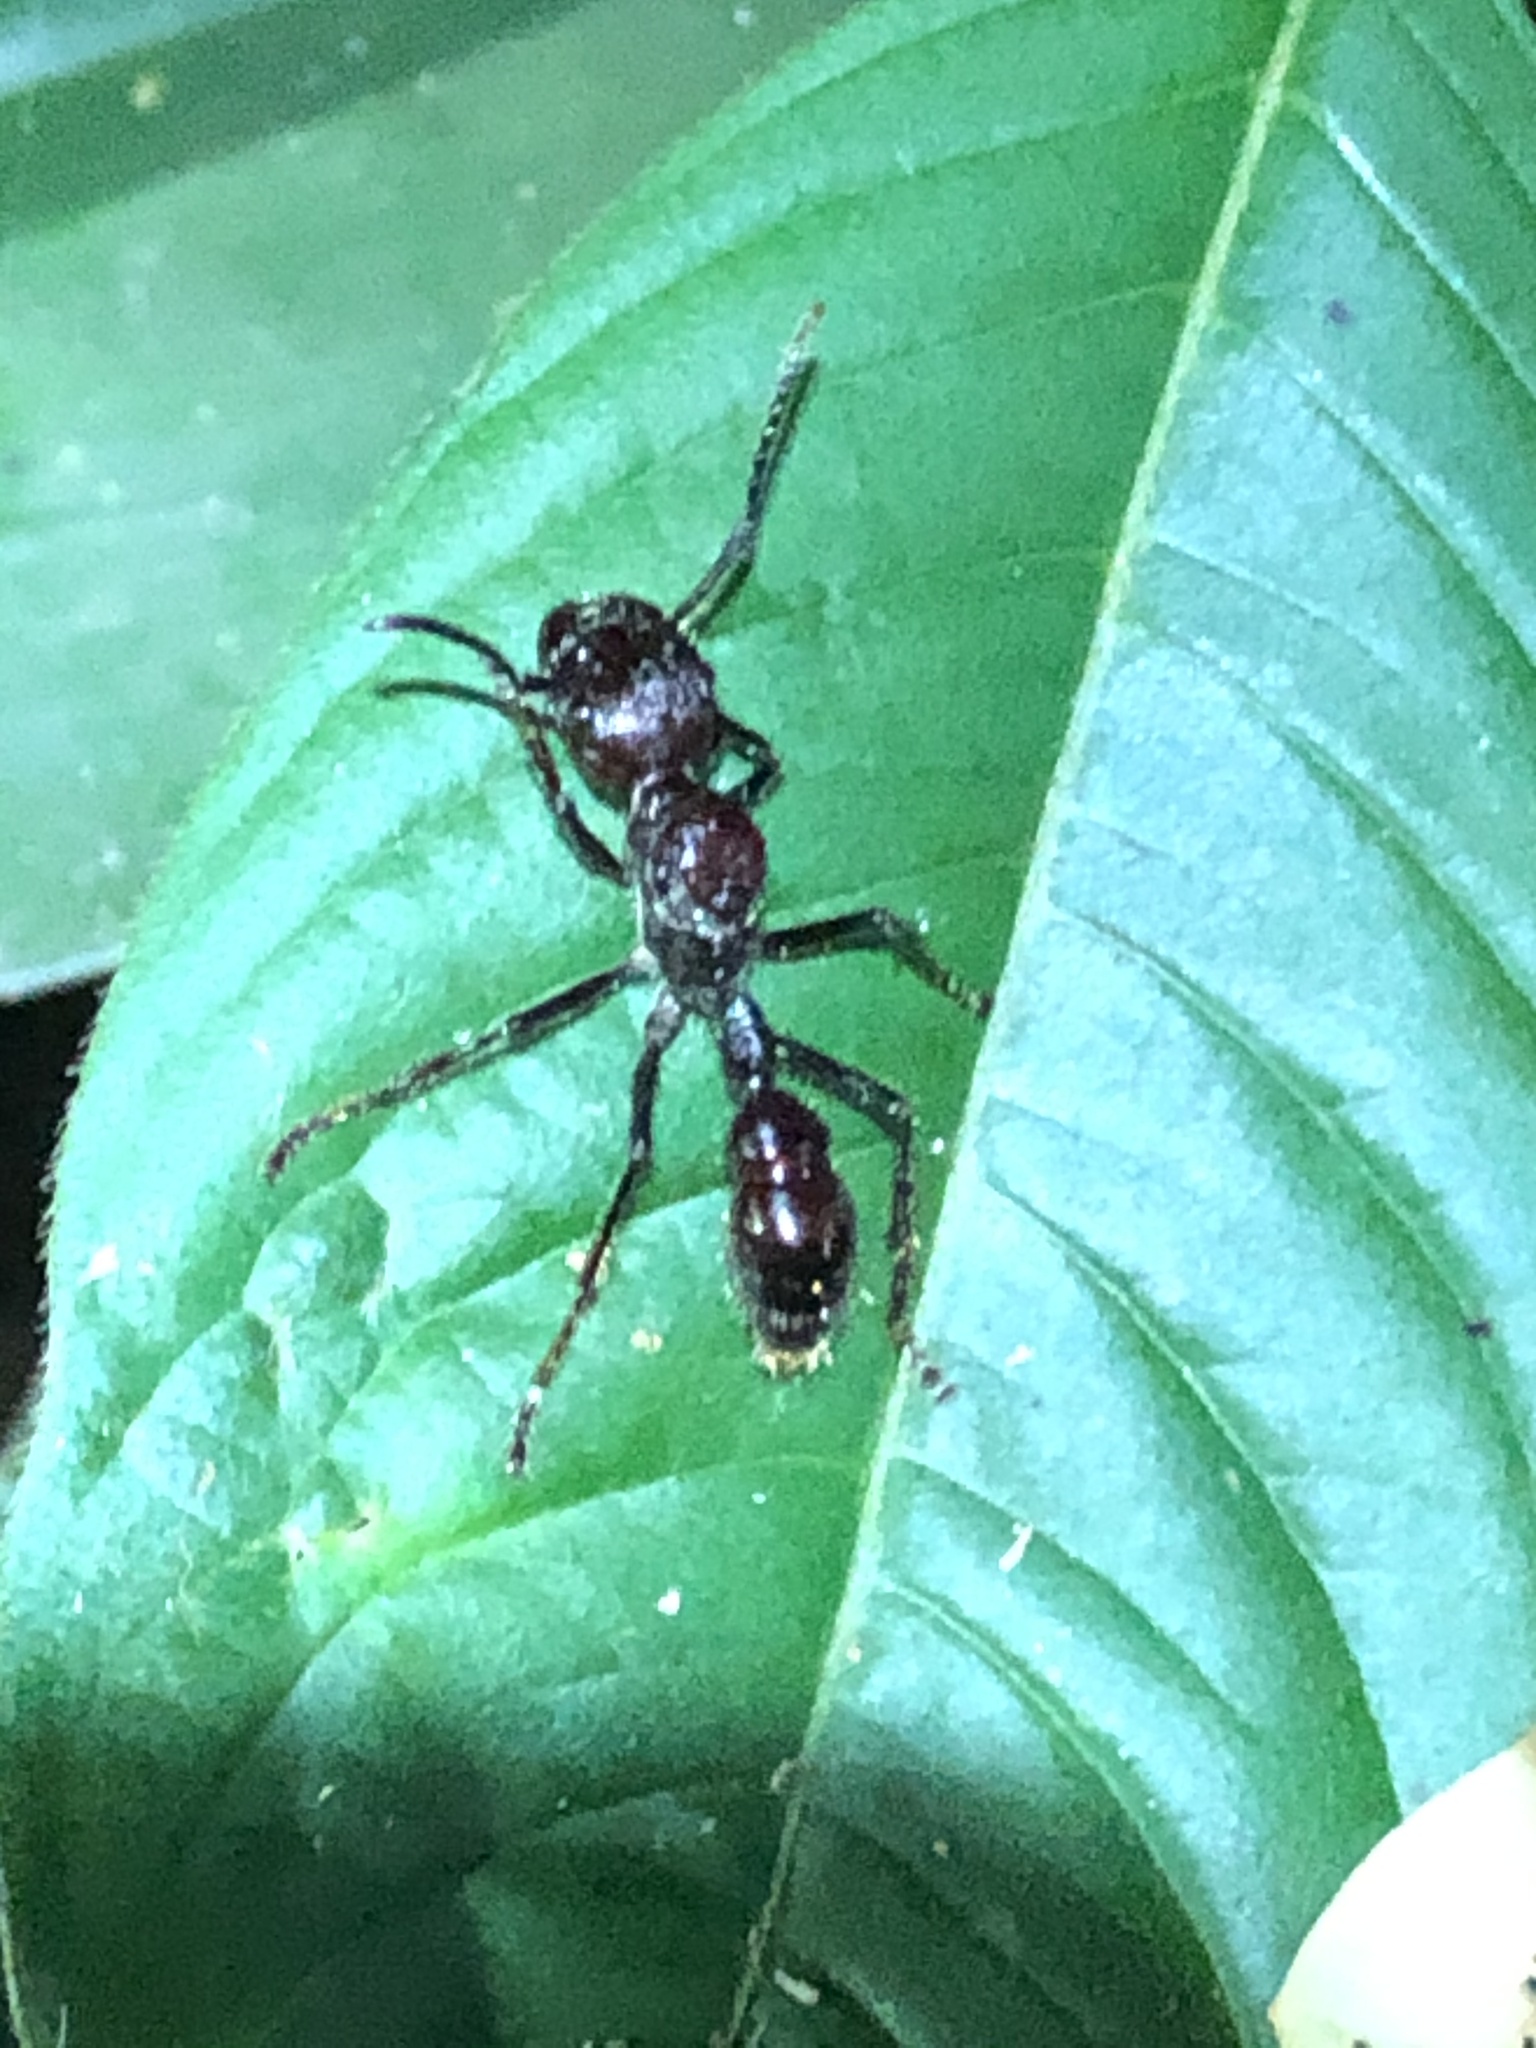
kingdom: Animalia
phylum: Arthropoda
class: Insecta
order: Hymenoptera
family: Formicidae
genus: Paraponera
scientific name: Paraponera clavata
